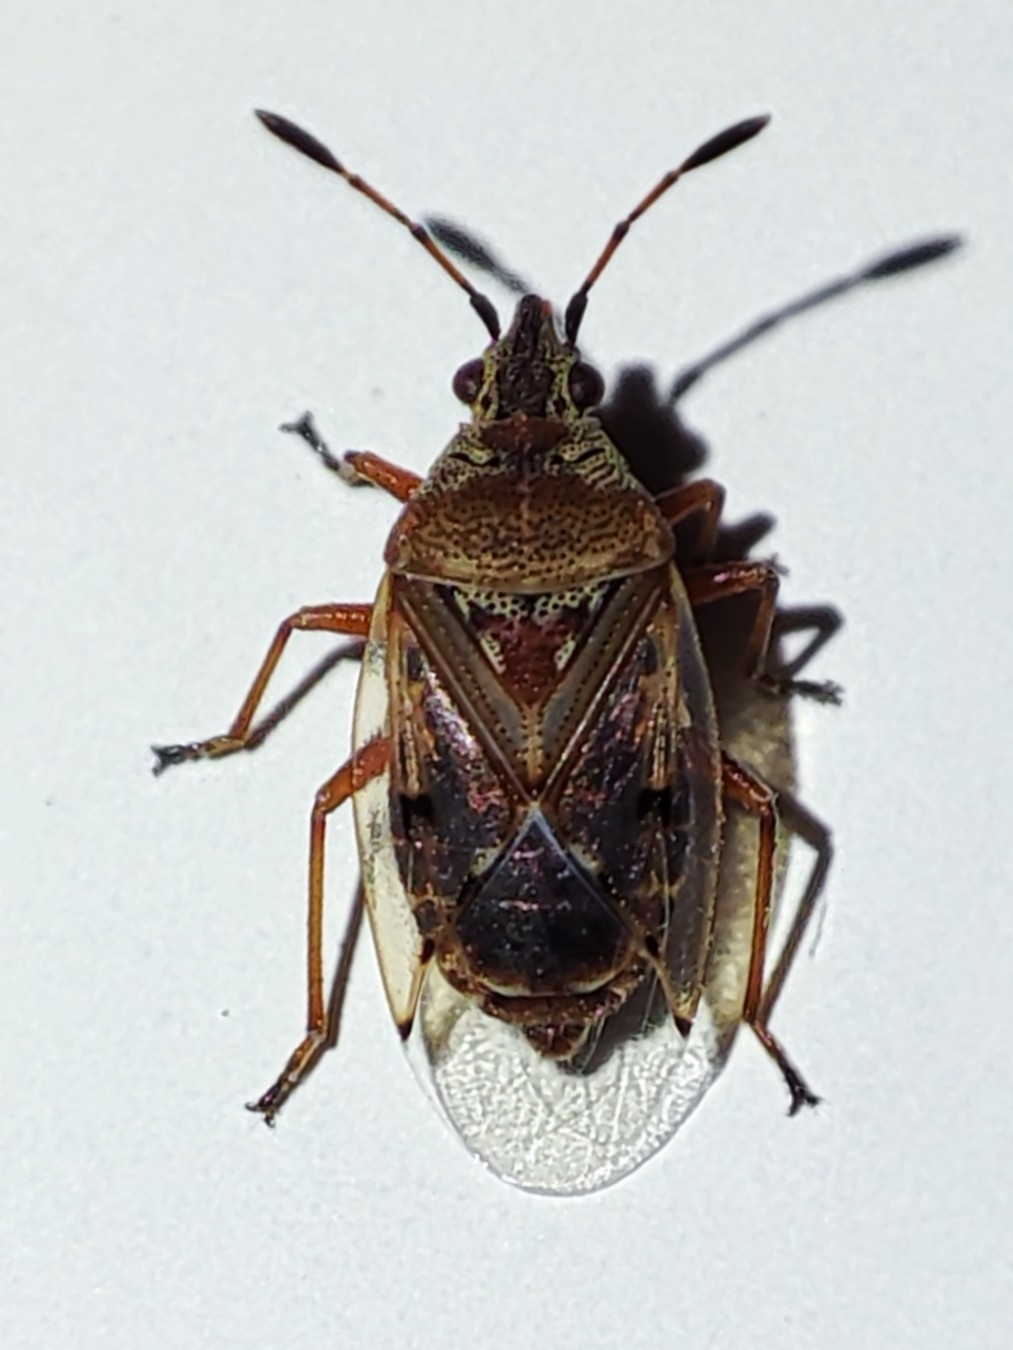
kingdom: Animalia
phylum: Arthropoda
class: Insecta
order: Hemiptera
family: Lygaeidae
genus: Kleidocerys
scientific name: Kleidocerys resedae
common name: Birch catkin bug
